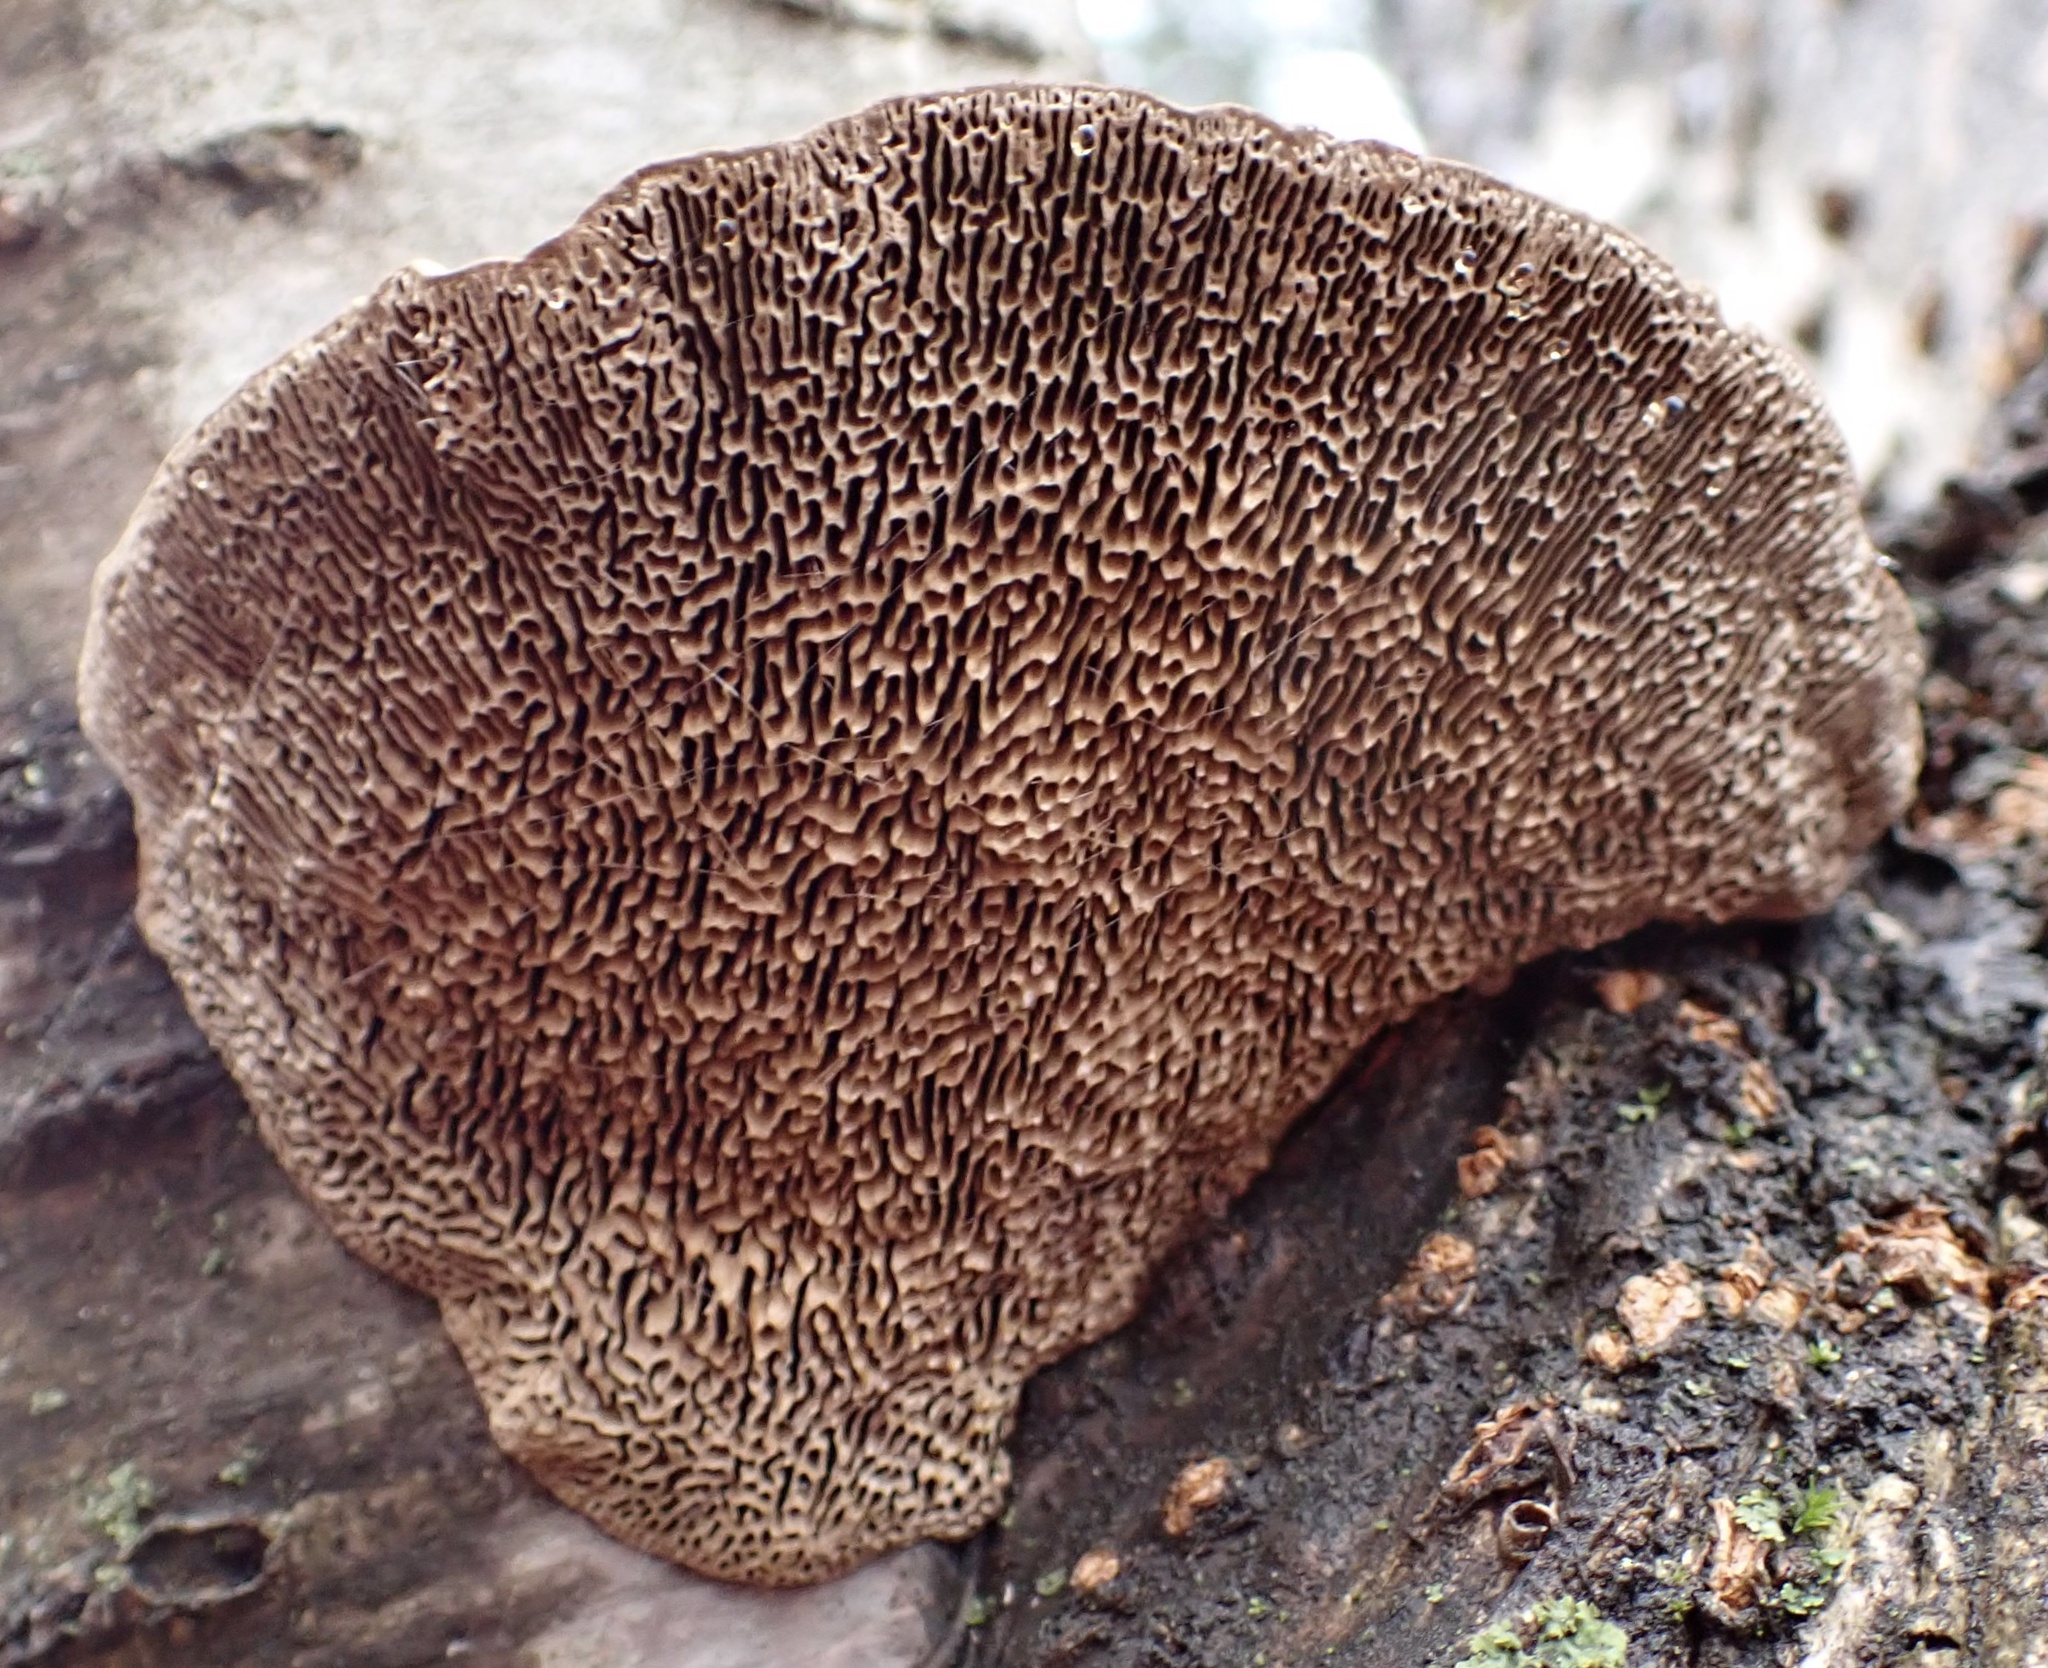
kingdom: Fungi
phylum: Basidiomycota
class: Agaricomycetes
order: Polyporales
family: Polyporaceae
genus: Daedaleopsis
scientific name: Daedaleopsis confragosa
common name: Blushing bracket
